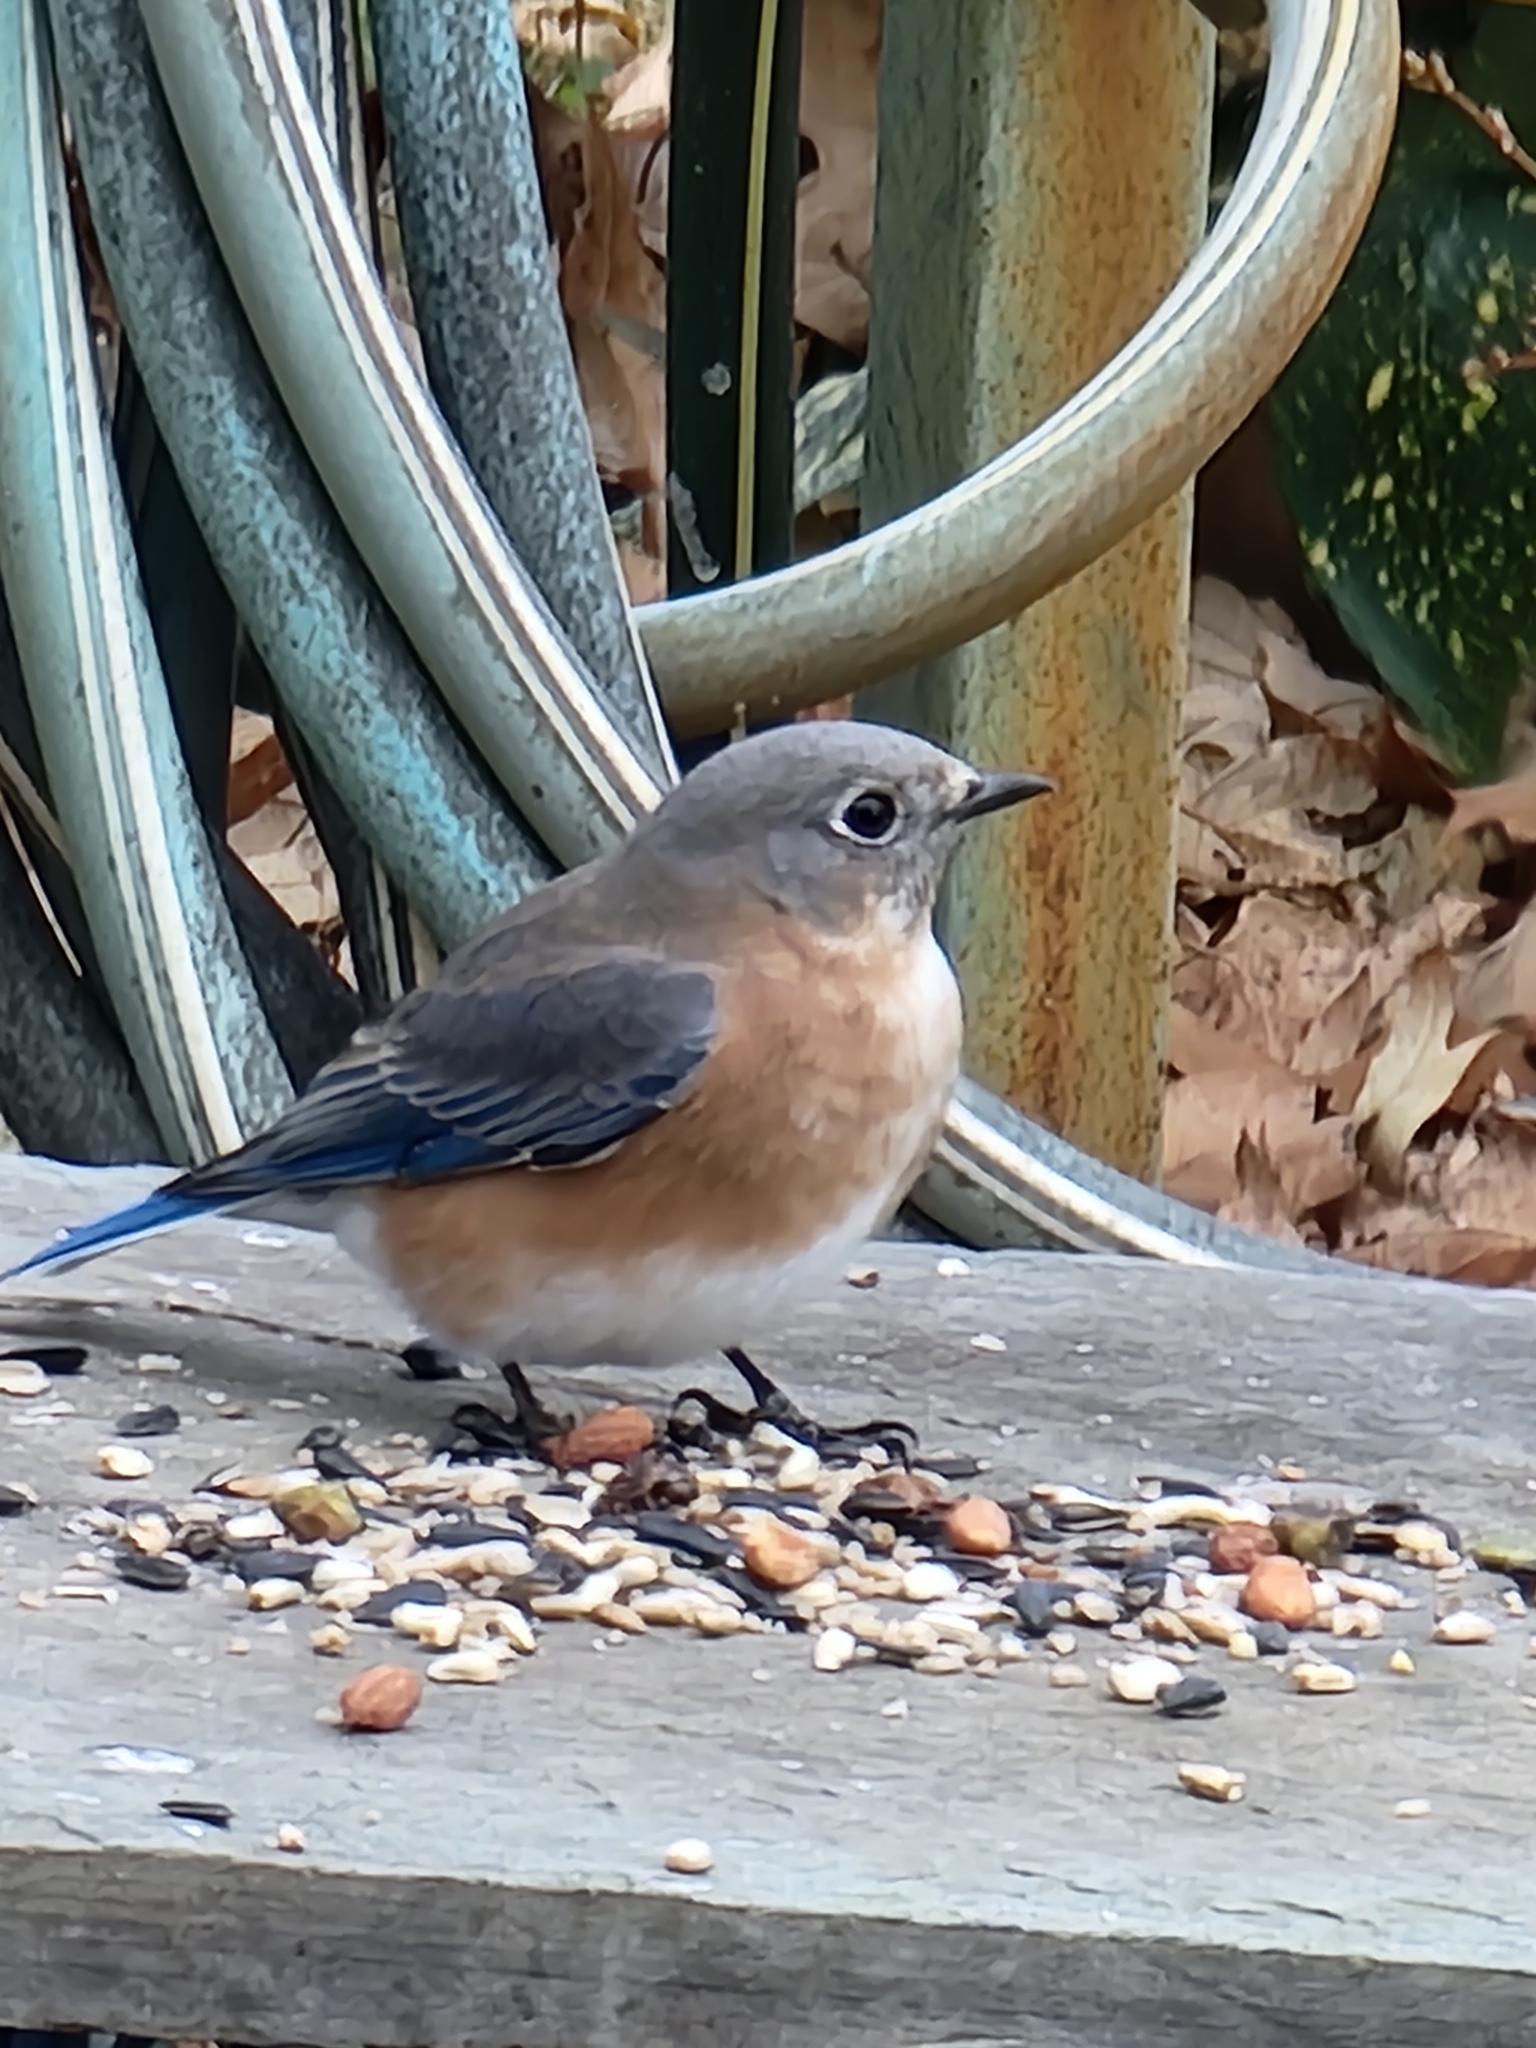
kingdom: Animalia
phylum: Chordata
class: Aves
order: Passeriformes
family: Turdidae
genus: Sialia
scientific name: Sialia sialis
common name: Eastern bluebird
